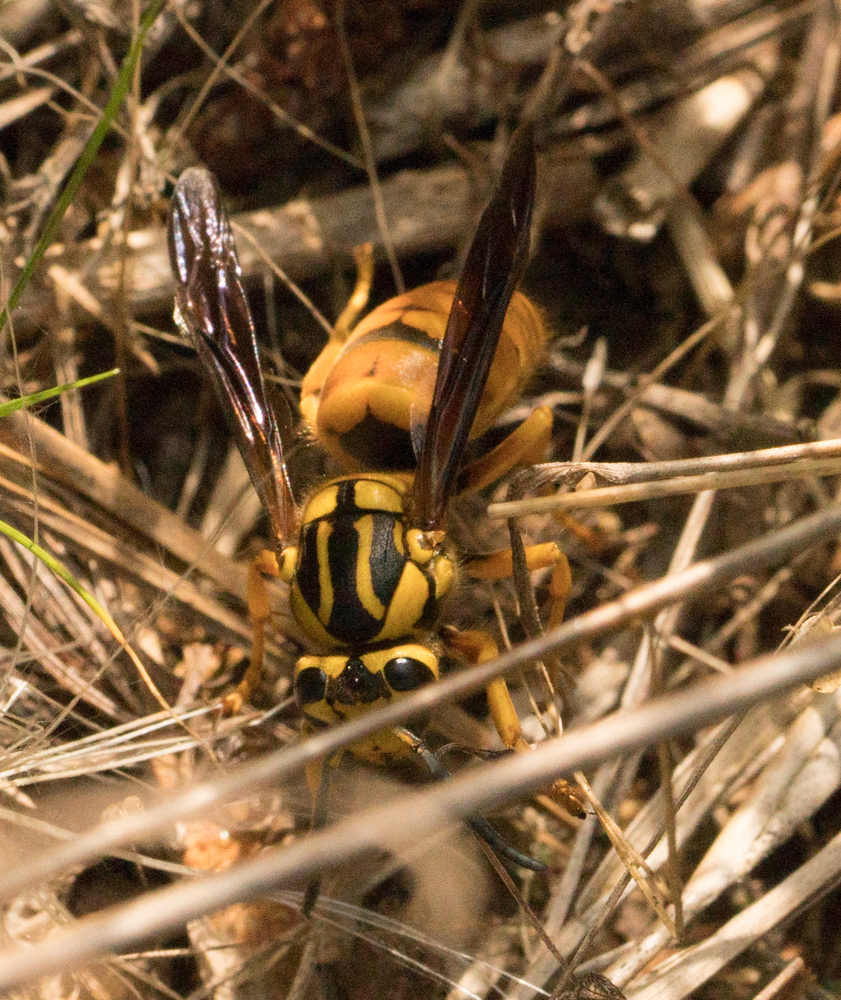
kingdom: Animalia
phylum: Arthropoda
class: Insecta
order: Hymenoptera
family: Vespidae
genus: Vespula
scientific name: Vespula squamosa
